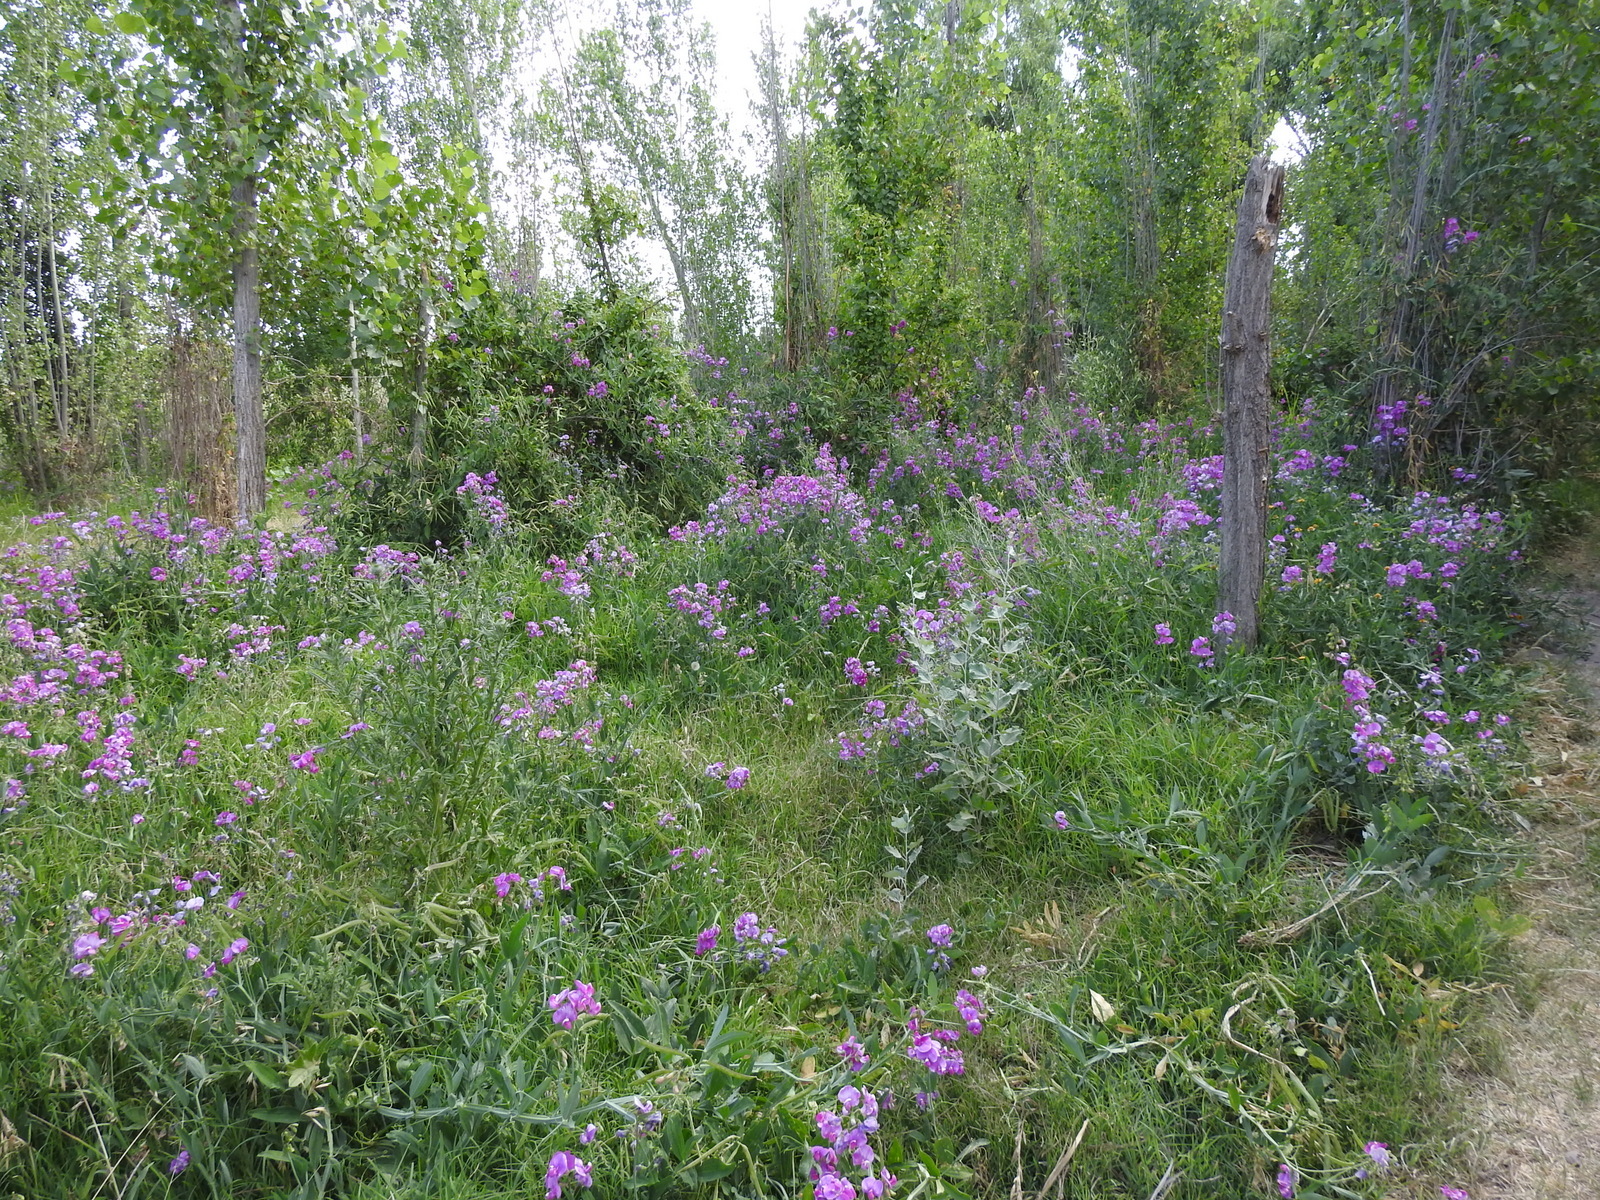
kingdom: Plantae
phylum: Tracheophyta
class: Magnoliopsida
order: Fabales
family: Fabaceae
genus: Lathyrus
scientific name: Lathyrus latifolius
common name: Perennial pea
